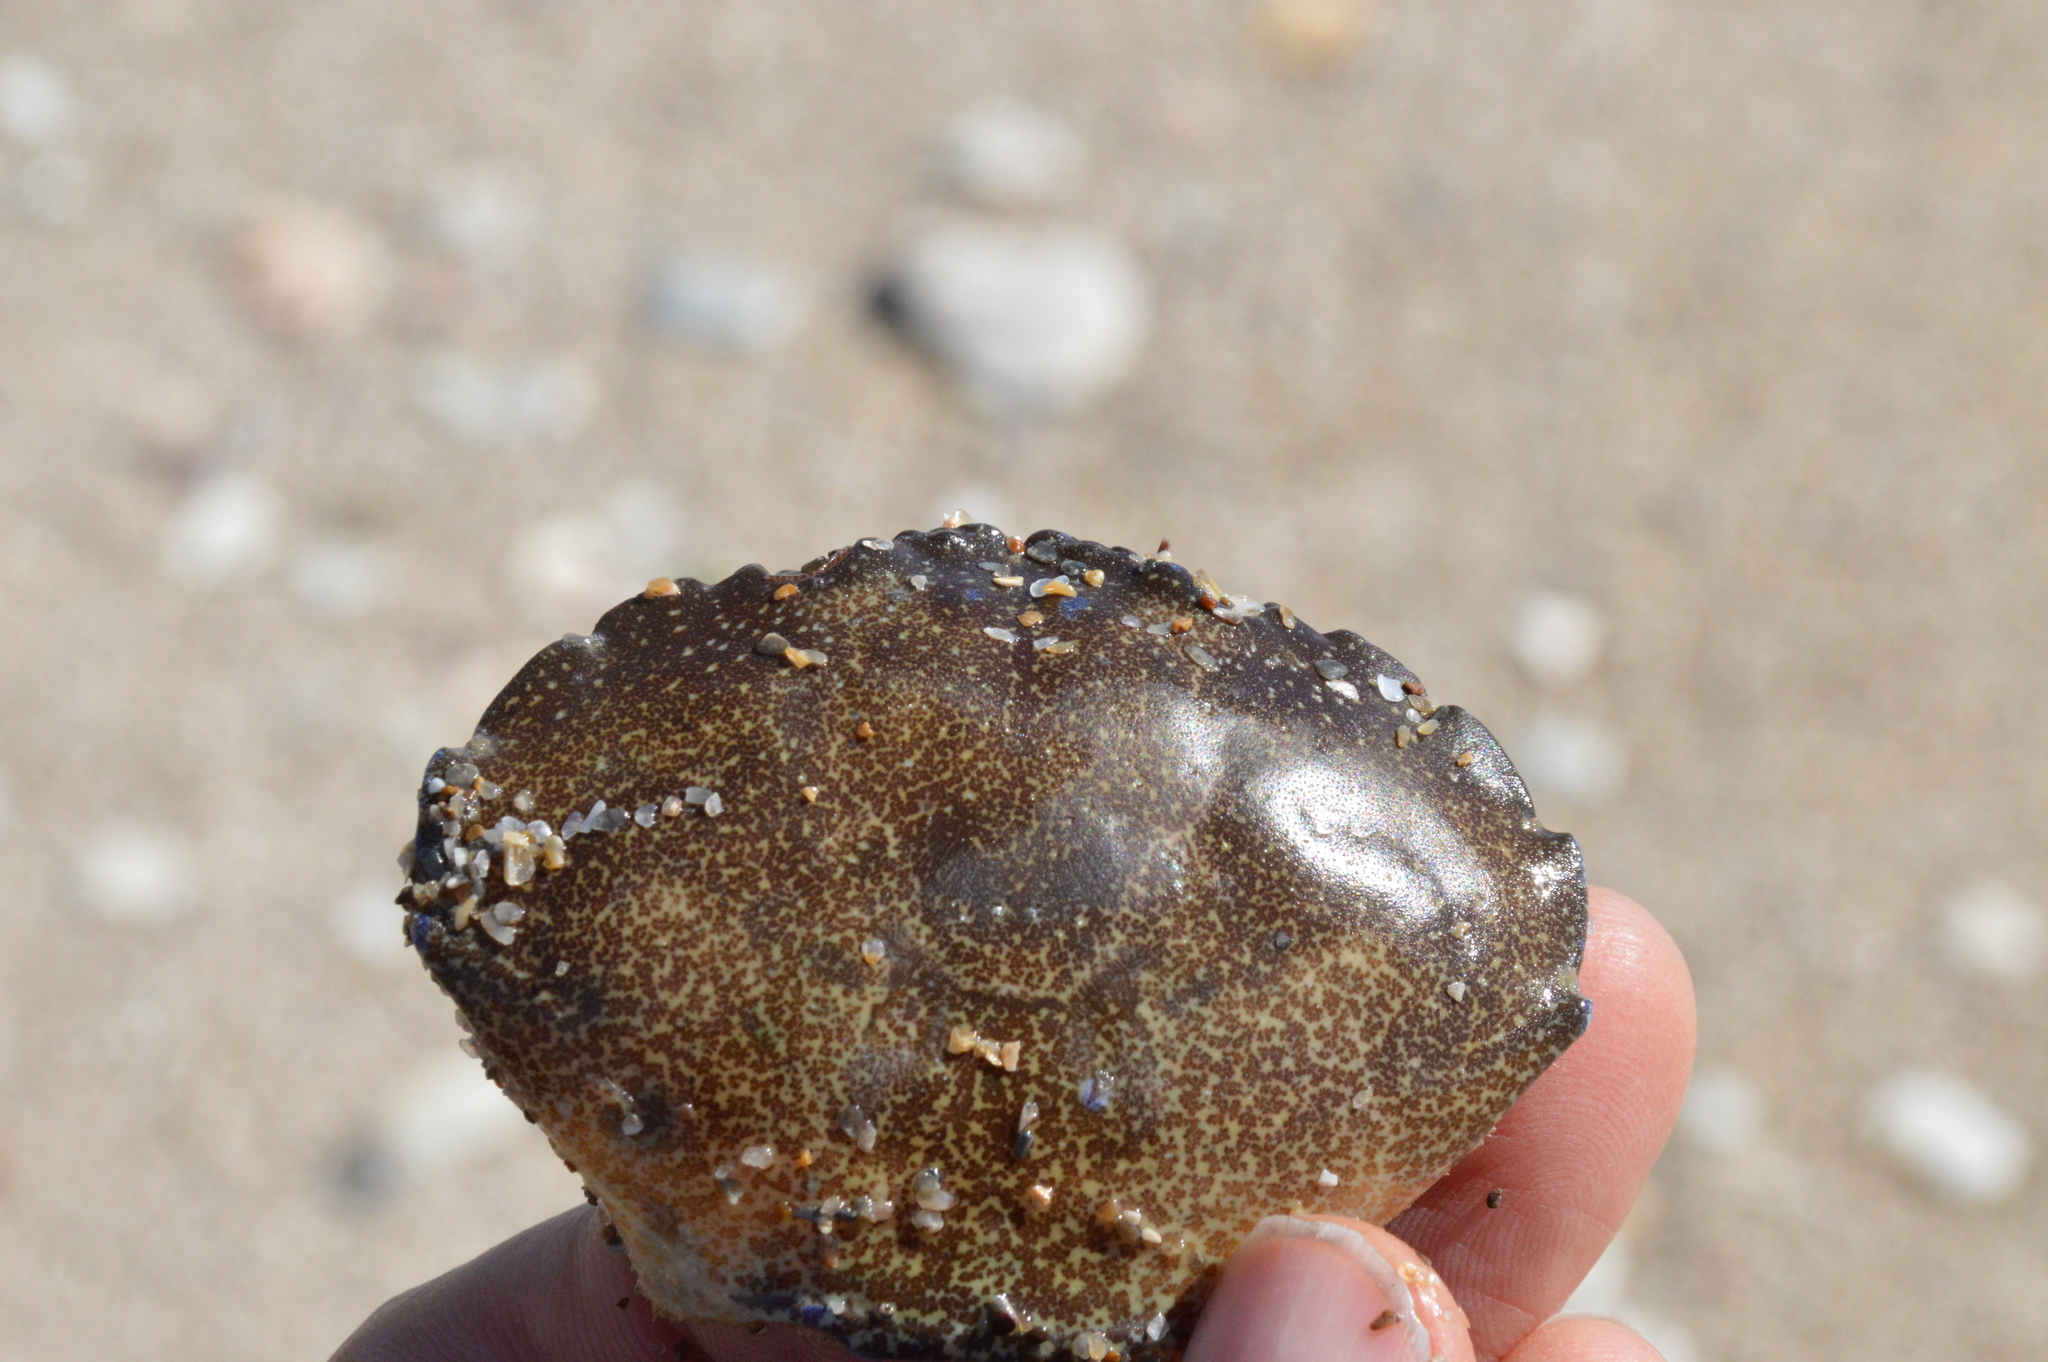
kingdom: Animalia
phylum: Arthropoda
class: Malacostraca
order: Decapoda
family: Menippidae
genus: Menippe
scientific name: Menippe adina
